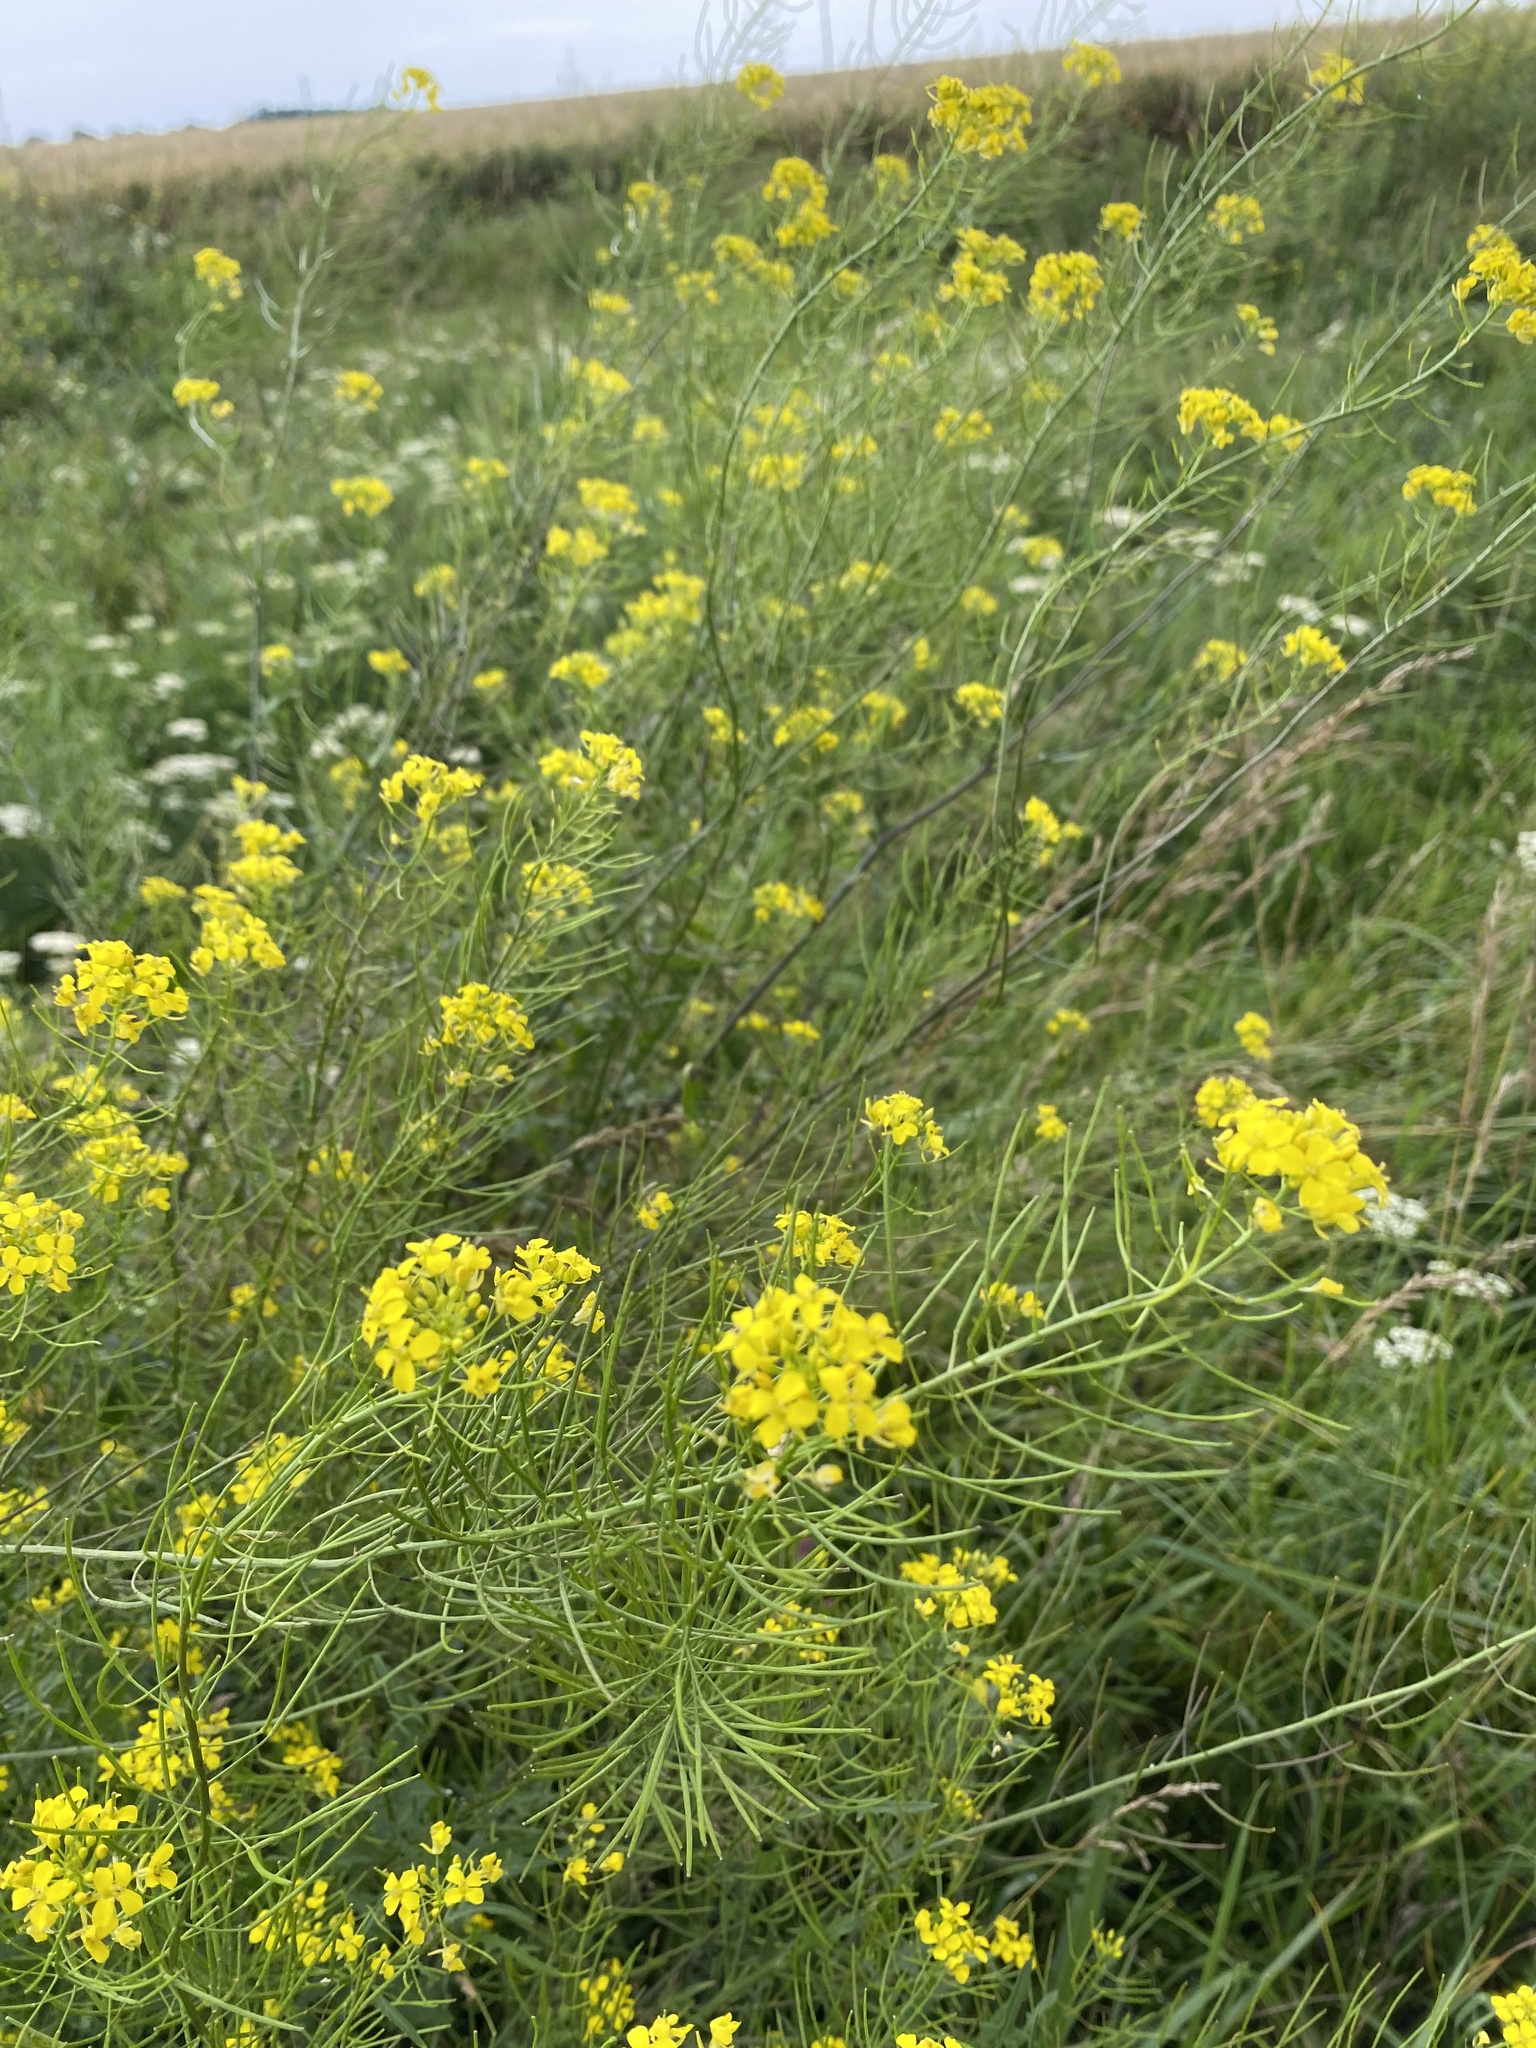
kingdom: Plantae
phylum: Tracheophyta
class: Magnoliopsida
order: Brassicales
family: Brassicaceae
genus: Sisymbrium
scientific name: Sisymbrium loeselii
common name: False london-rocket
